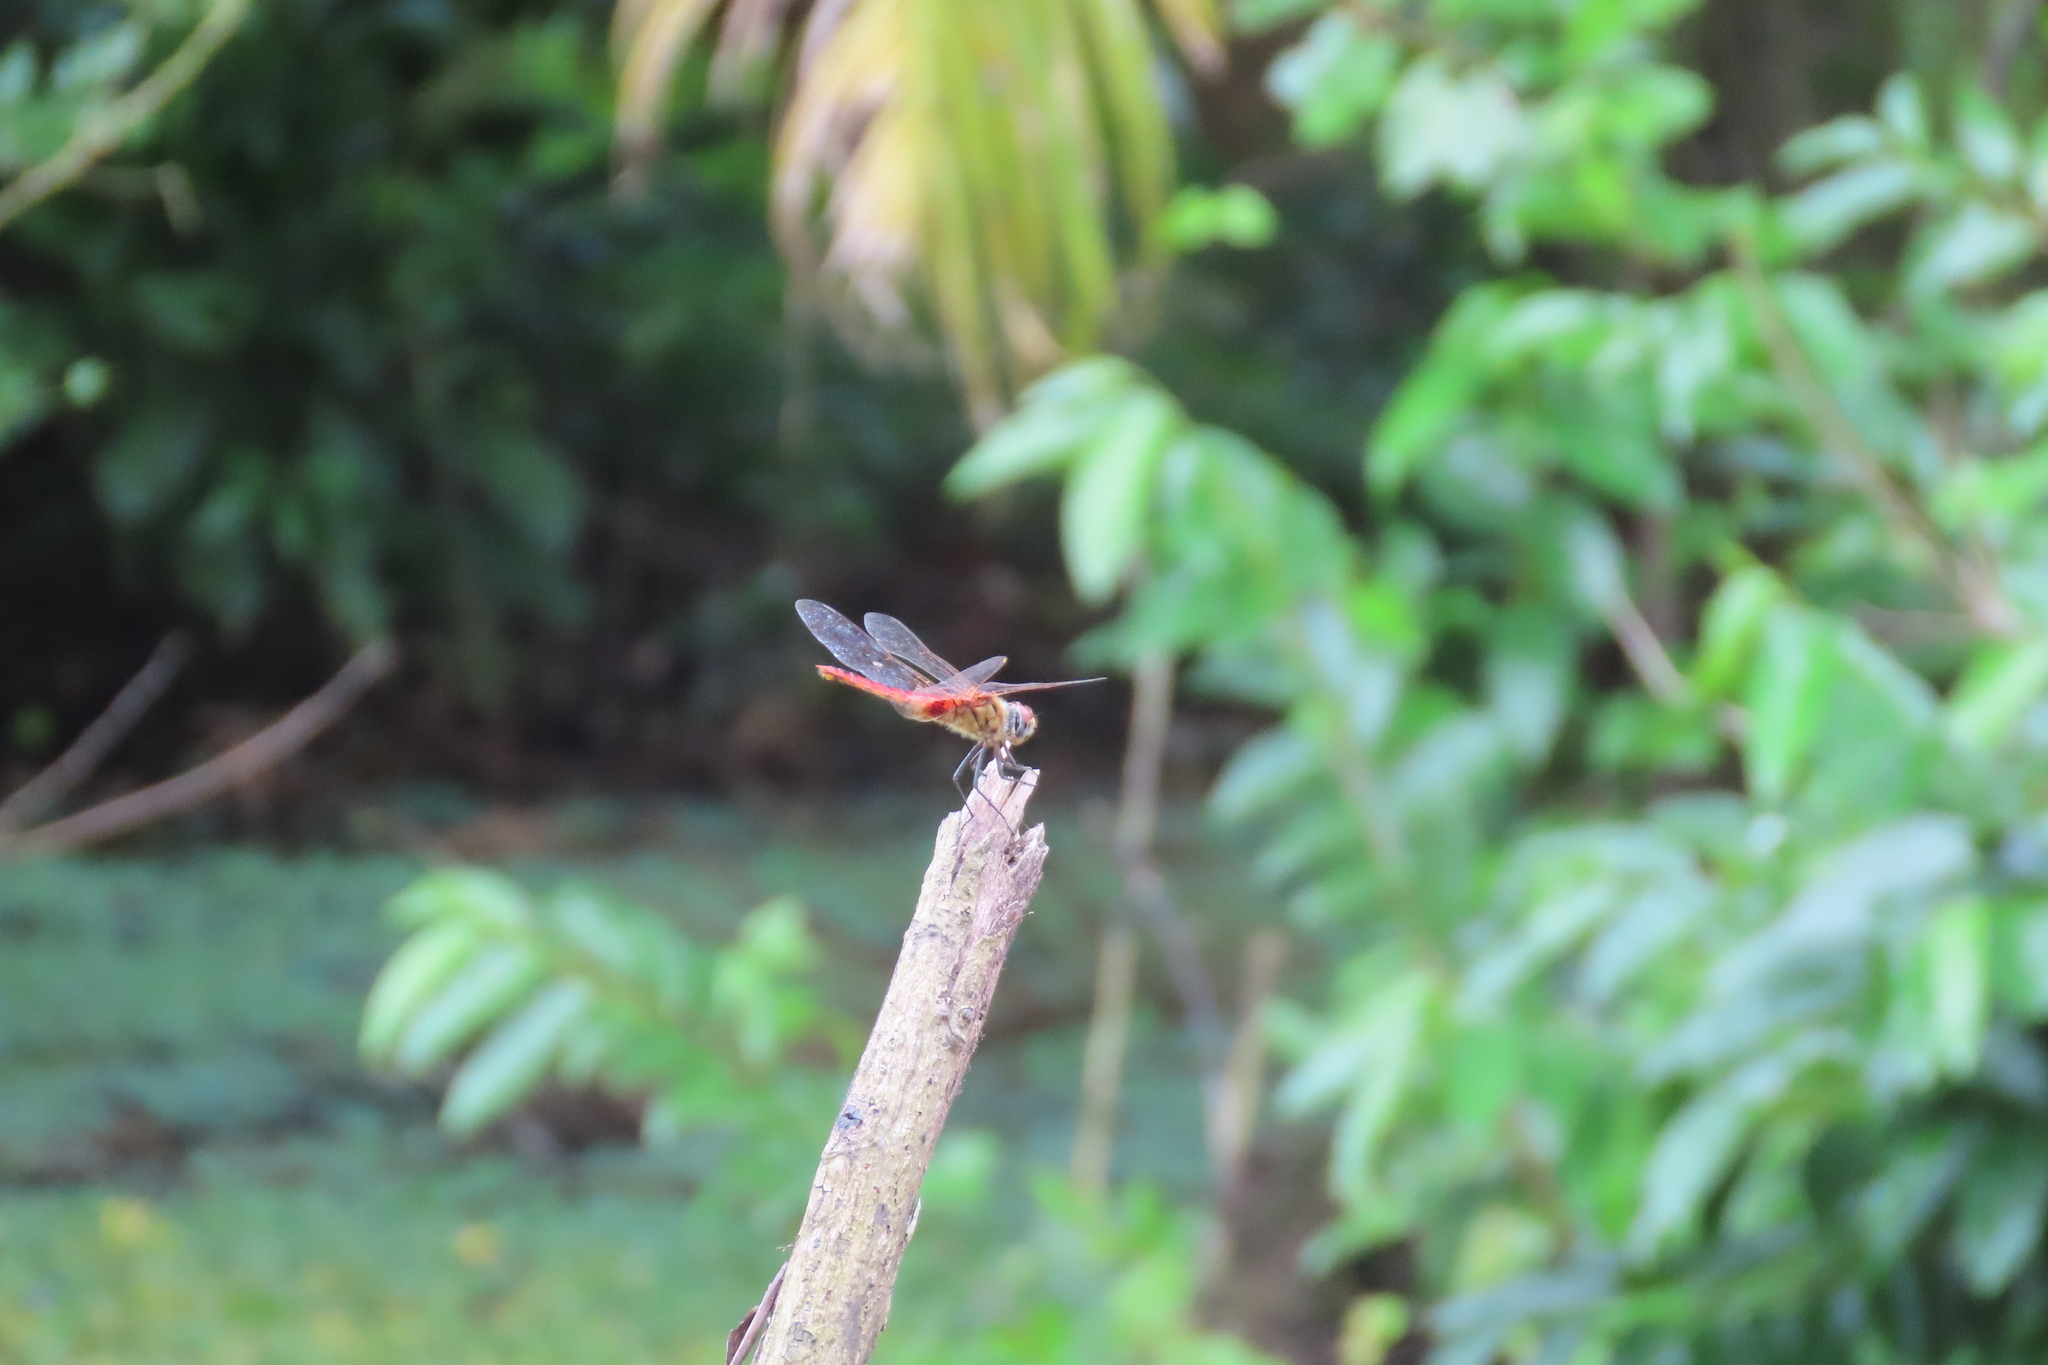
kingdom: Animalia
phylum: Arthropoda
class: Insecta
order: Odonata
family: Libellulidae
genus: Urothemis
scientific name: Urothemis signata
